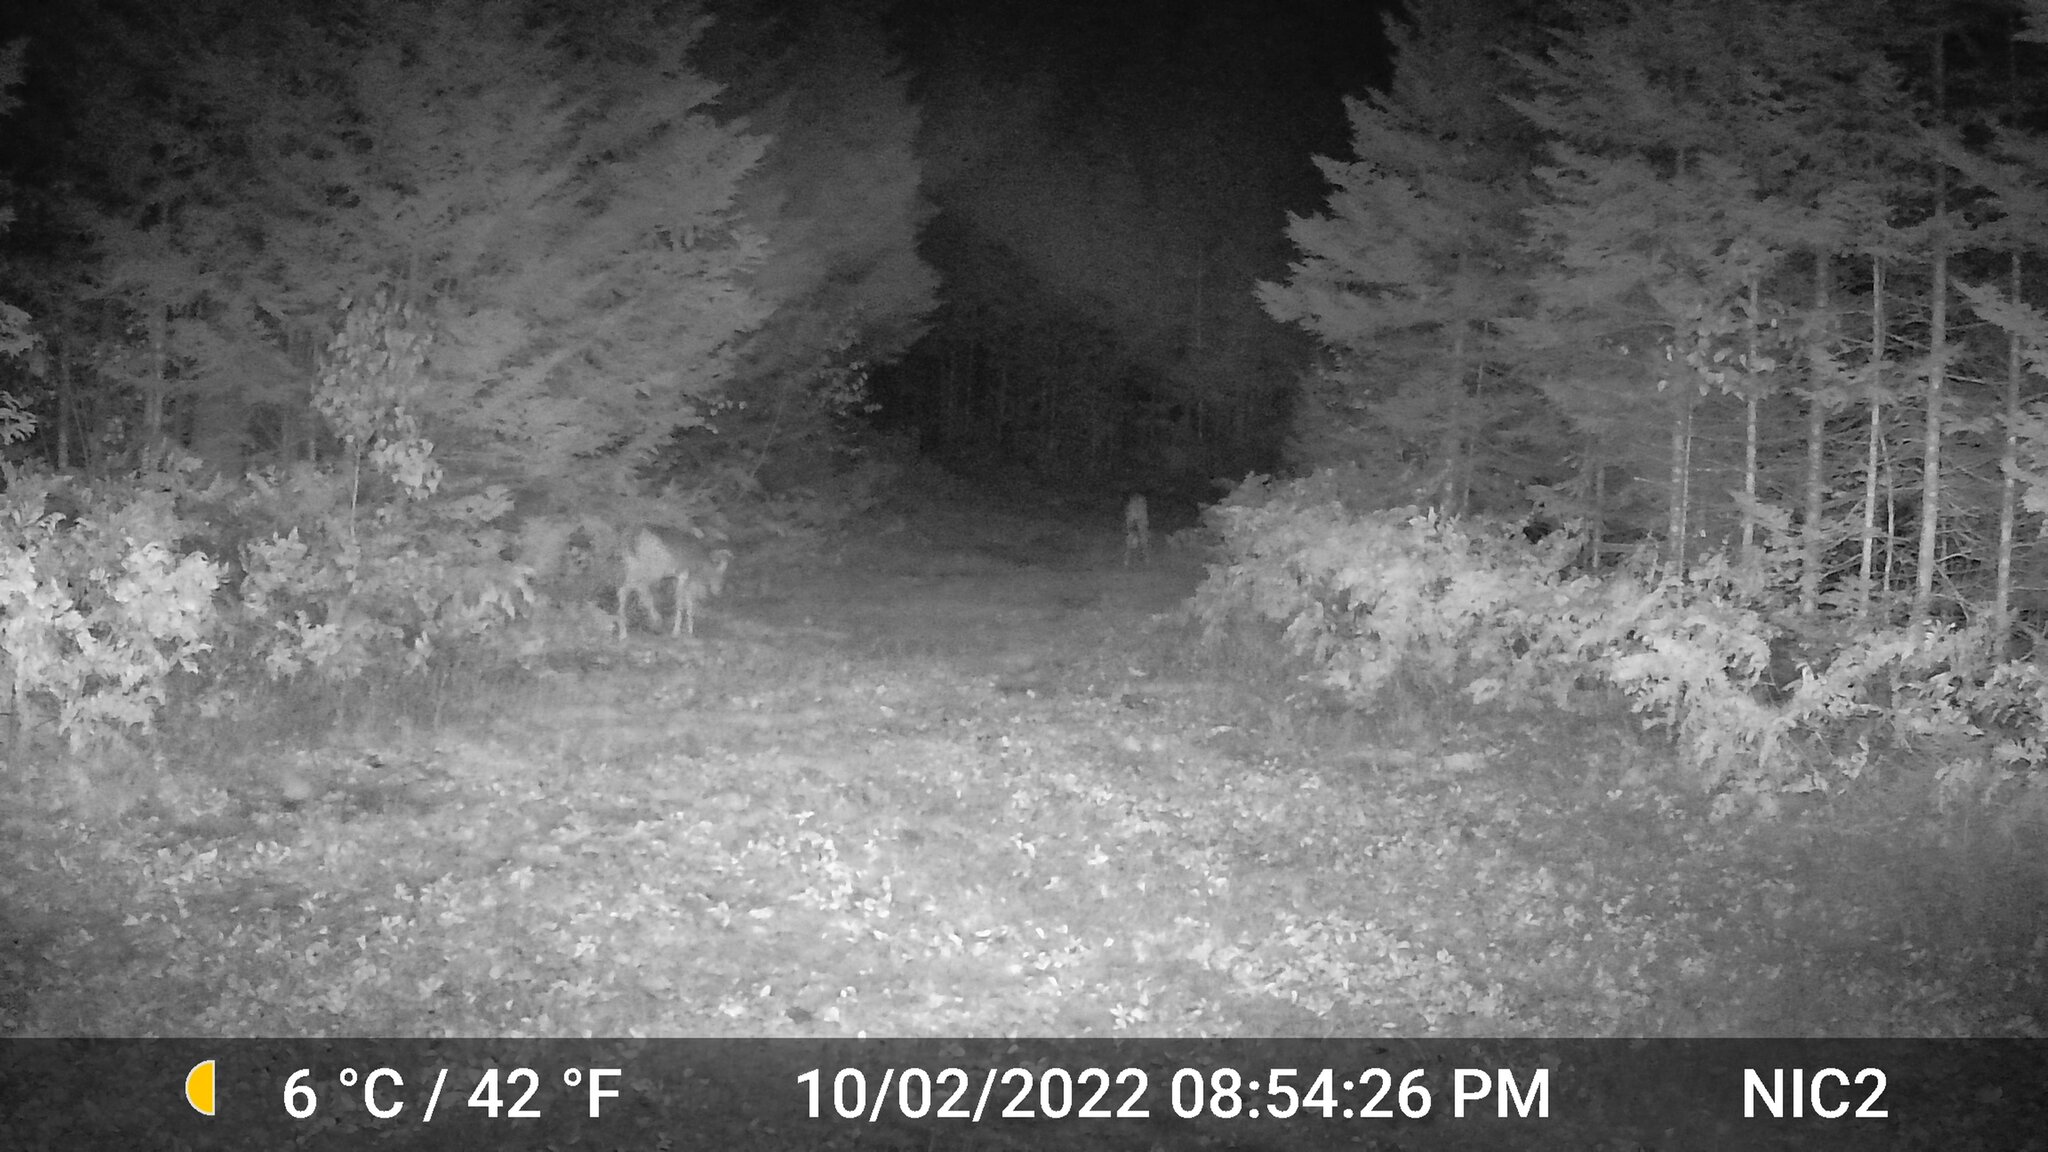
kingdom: Animalia
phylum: Chordata
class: Mammalia
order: Artiodactyla
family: Cervidae
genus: Odocoileus
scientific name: Odocoileus virginianus
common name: White-tailed deer
